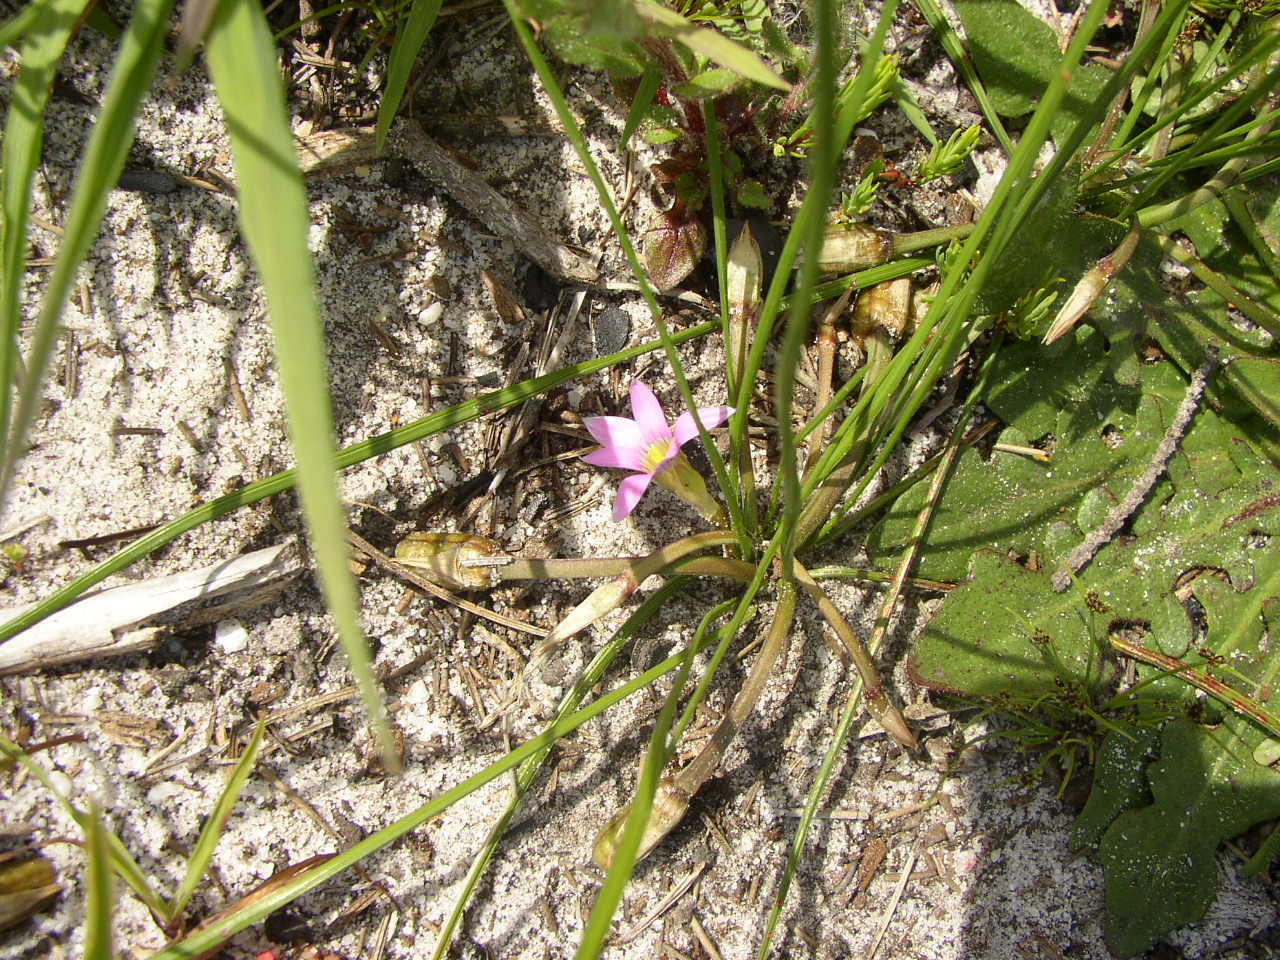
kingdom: Plantae
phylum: Tracheophyta
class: Liliopsida
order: Asparagales
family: Iridaceae
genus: Romulea
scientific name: Romulea rosea
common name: Oniongrass
